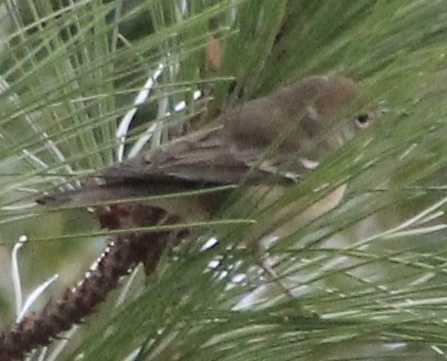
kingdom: Animalia
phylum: Chordata
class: Aves
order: Passeriformes
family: Parulidae
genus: Setophaga
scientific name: Setophaga pinus
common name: Pine warbler
